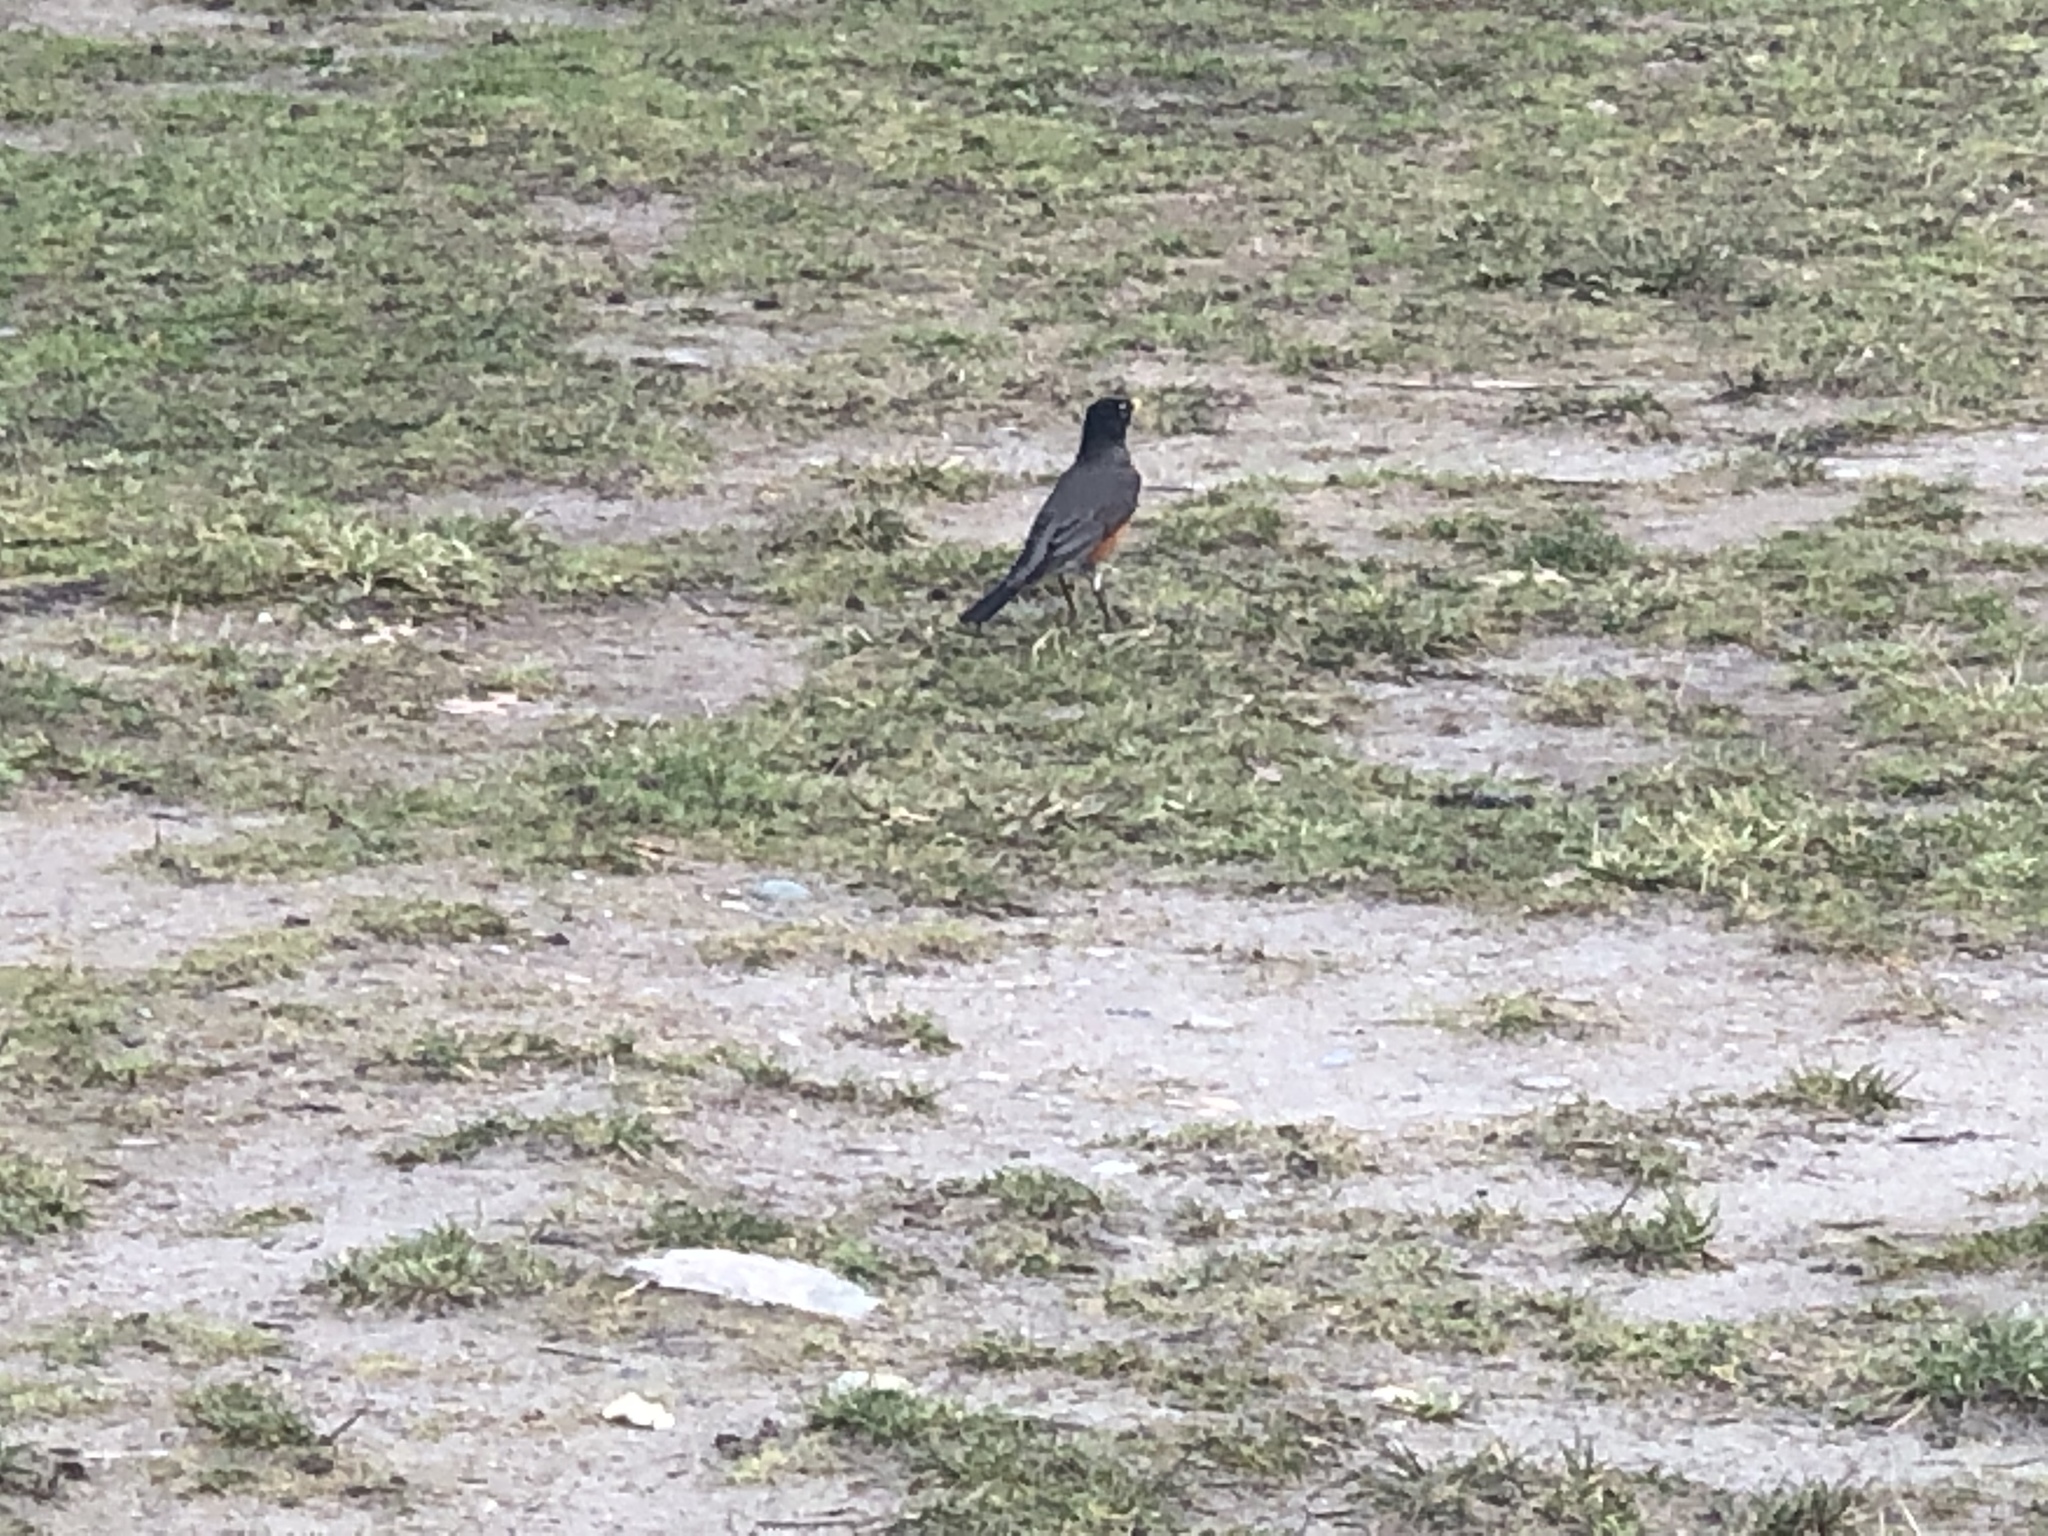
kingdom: Animalia
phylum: Chordata
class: Aves
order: Passeriformes
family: Turdidae
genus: Turdus
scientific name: Turdus migratorius
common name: American robin
